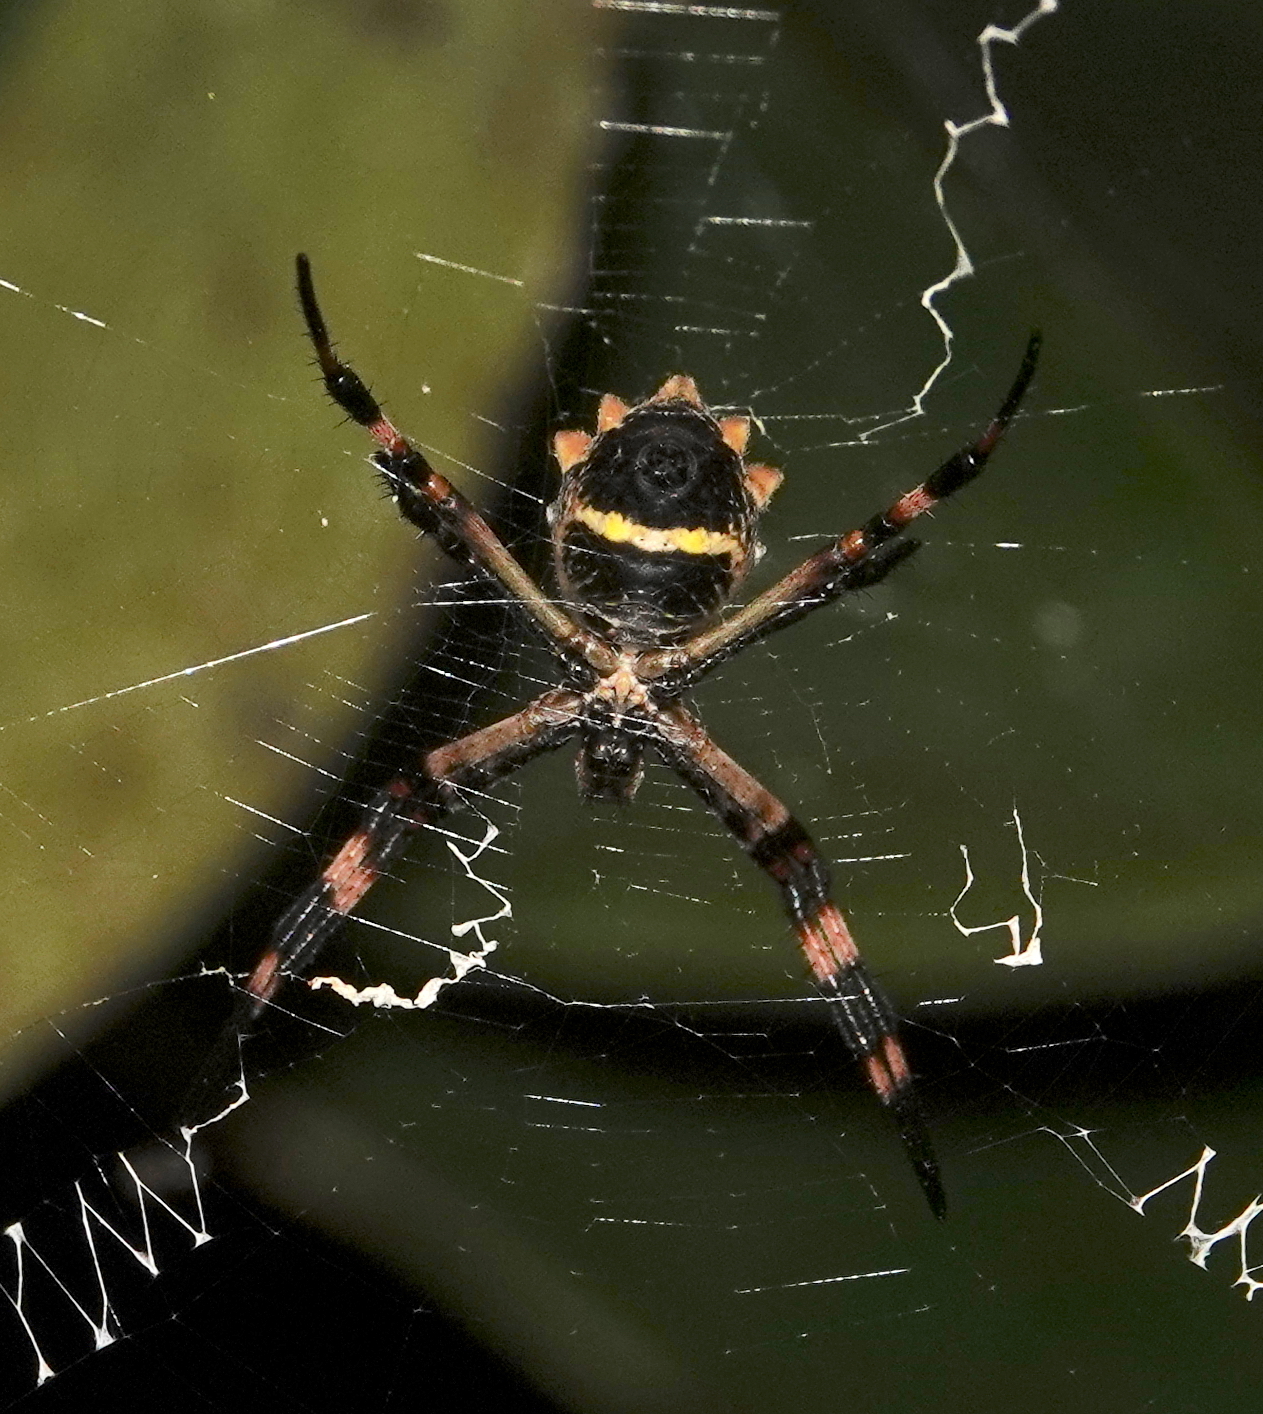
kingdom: Animalia
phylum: Arthropoda
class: Arachnida
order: Araneae
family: Araneidae
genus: Argiope
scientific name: Argiope argentata
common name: Orb weavers
